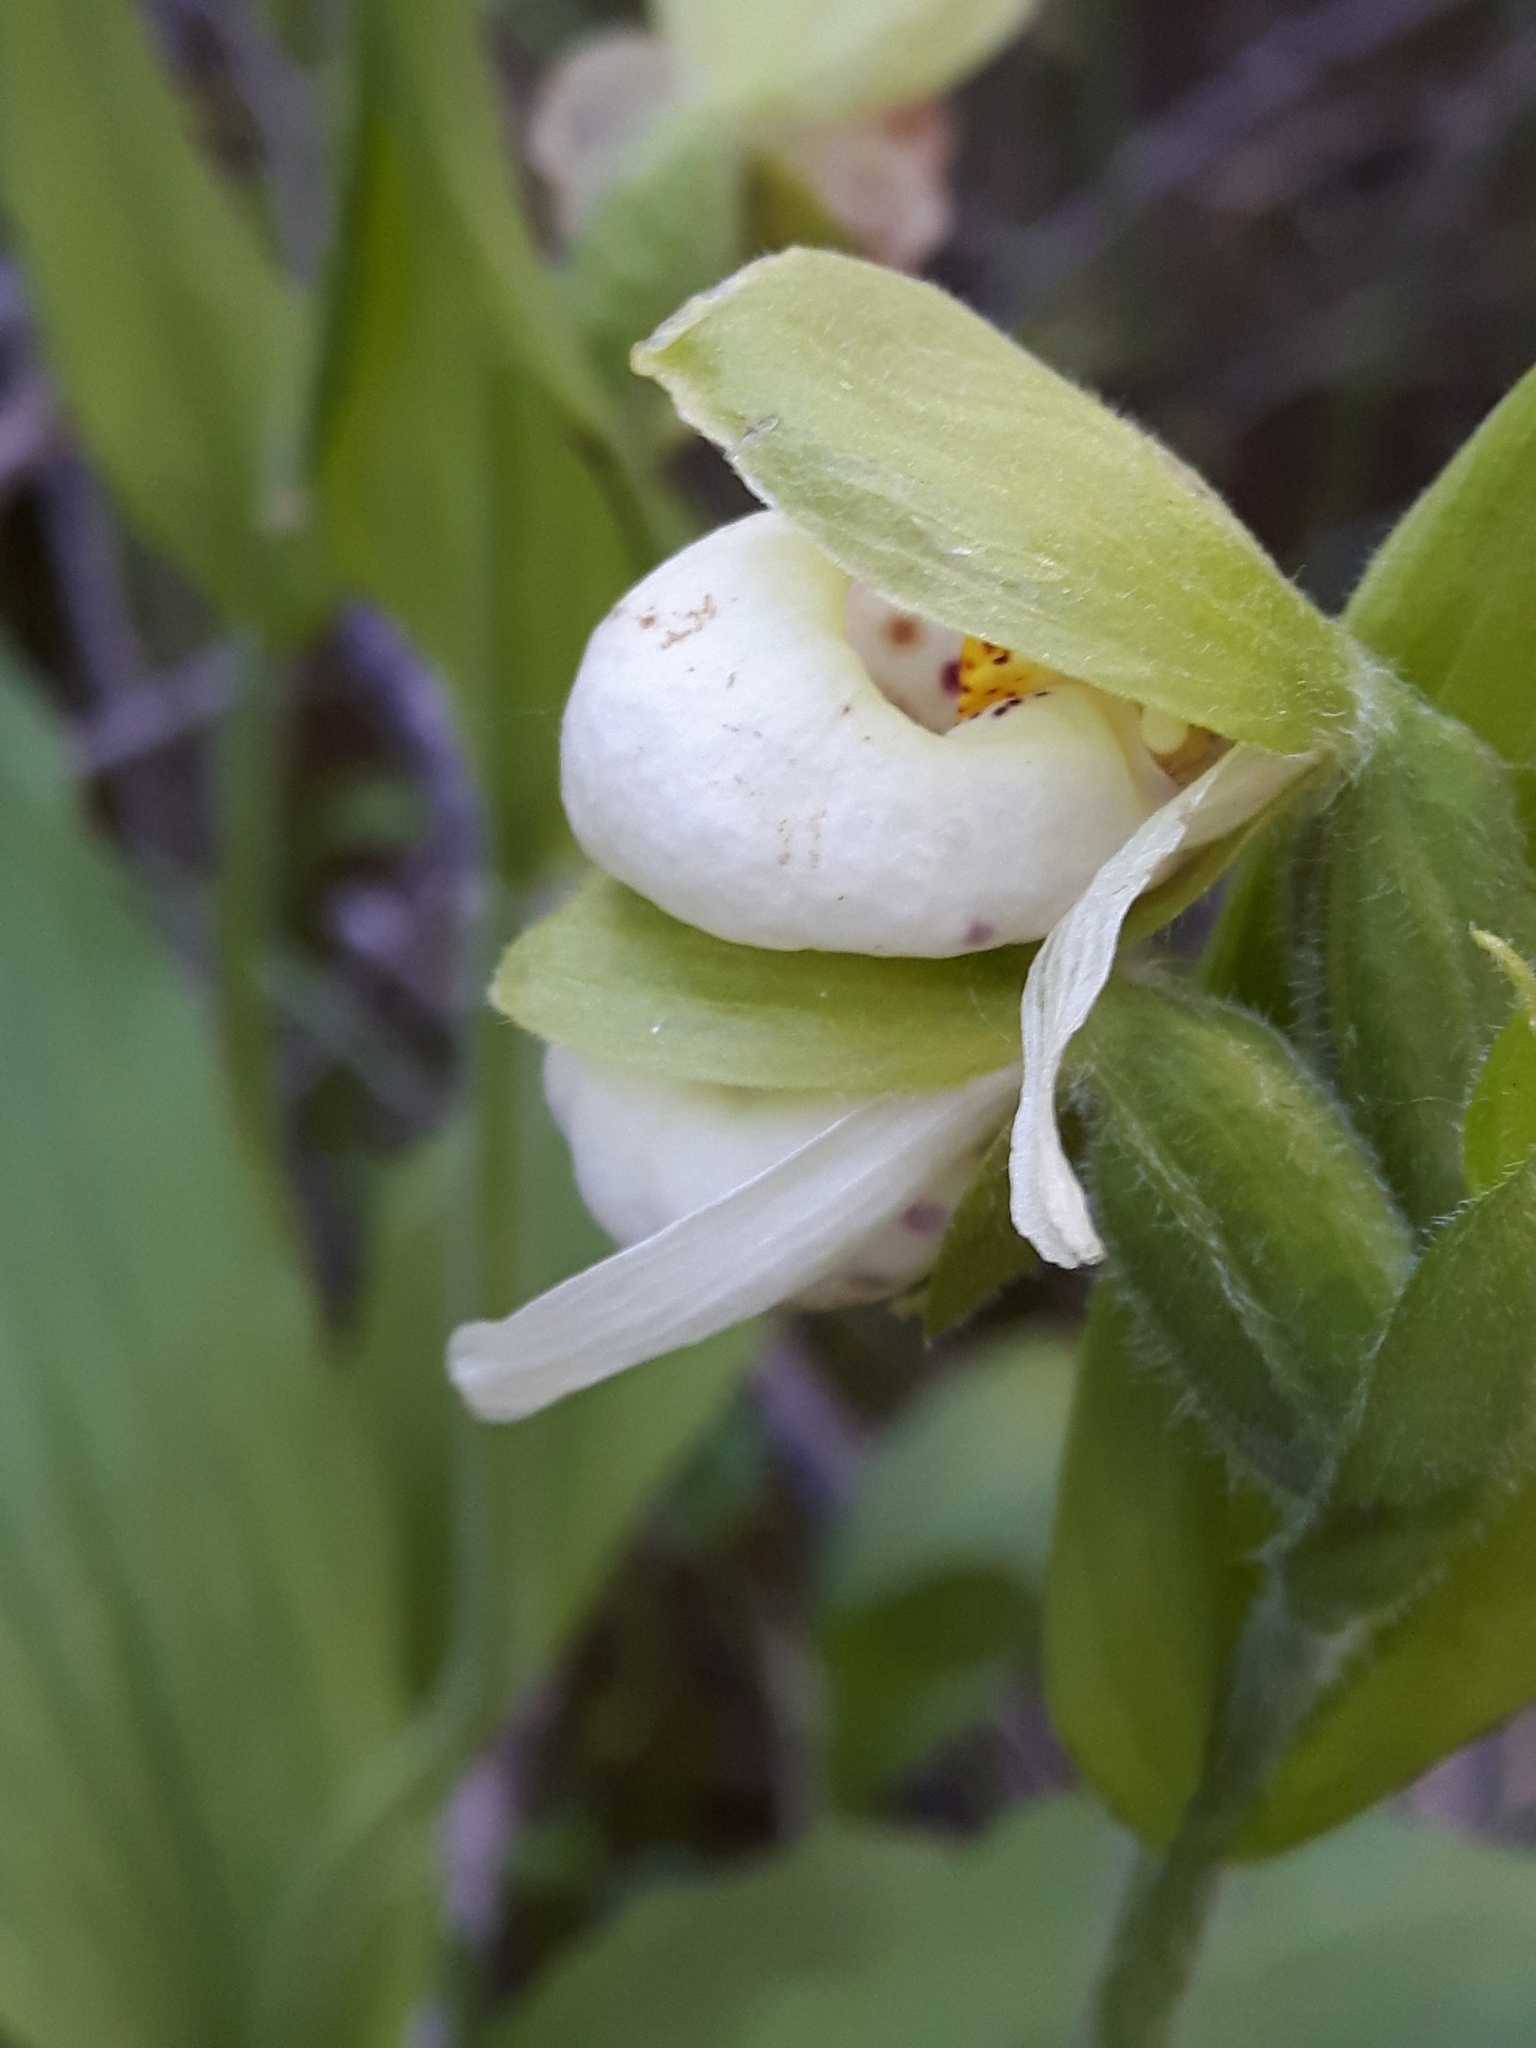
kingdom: Plantae
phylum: Tracheophyta
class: Liliopsida
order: Asparagales
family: Orchidaceae
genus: Cypripedium
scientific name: Cypripedium passerinum
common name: Sparrow's-egg lady's-slipper
